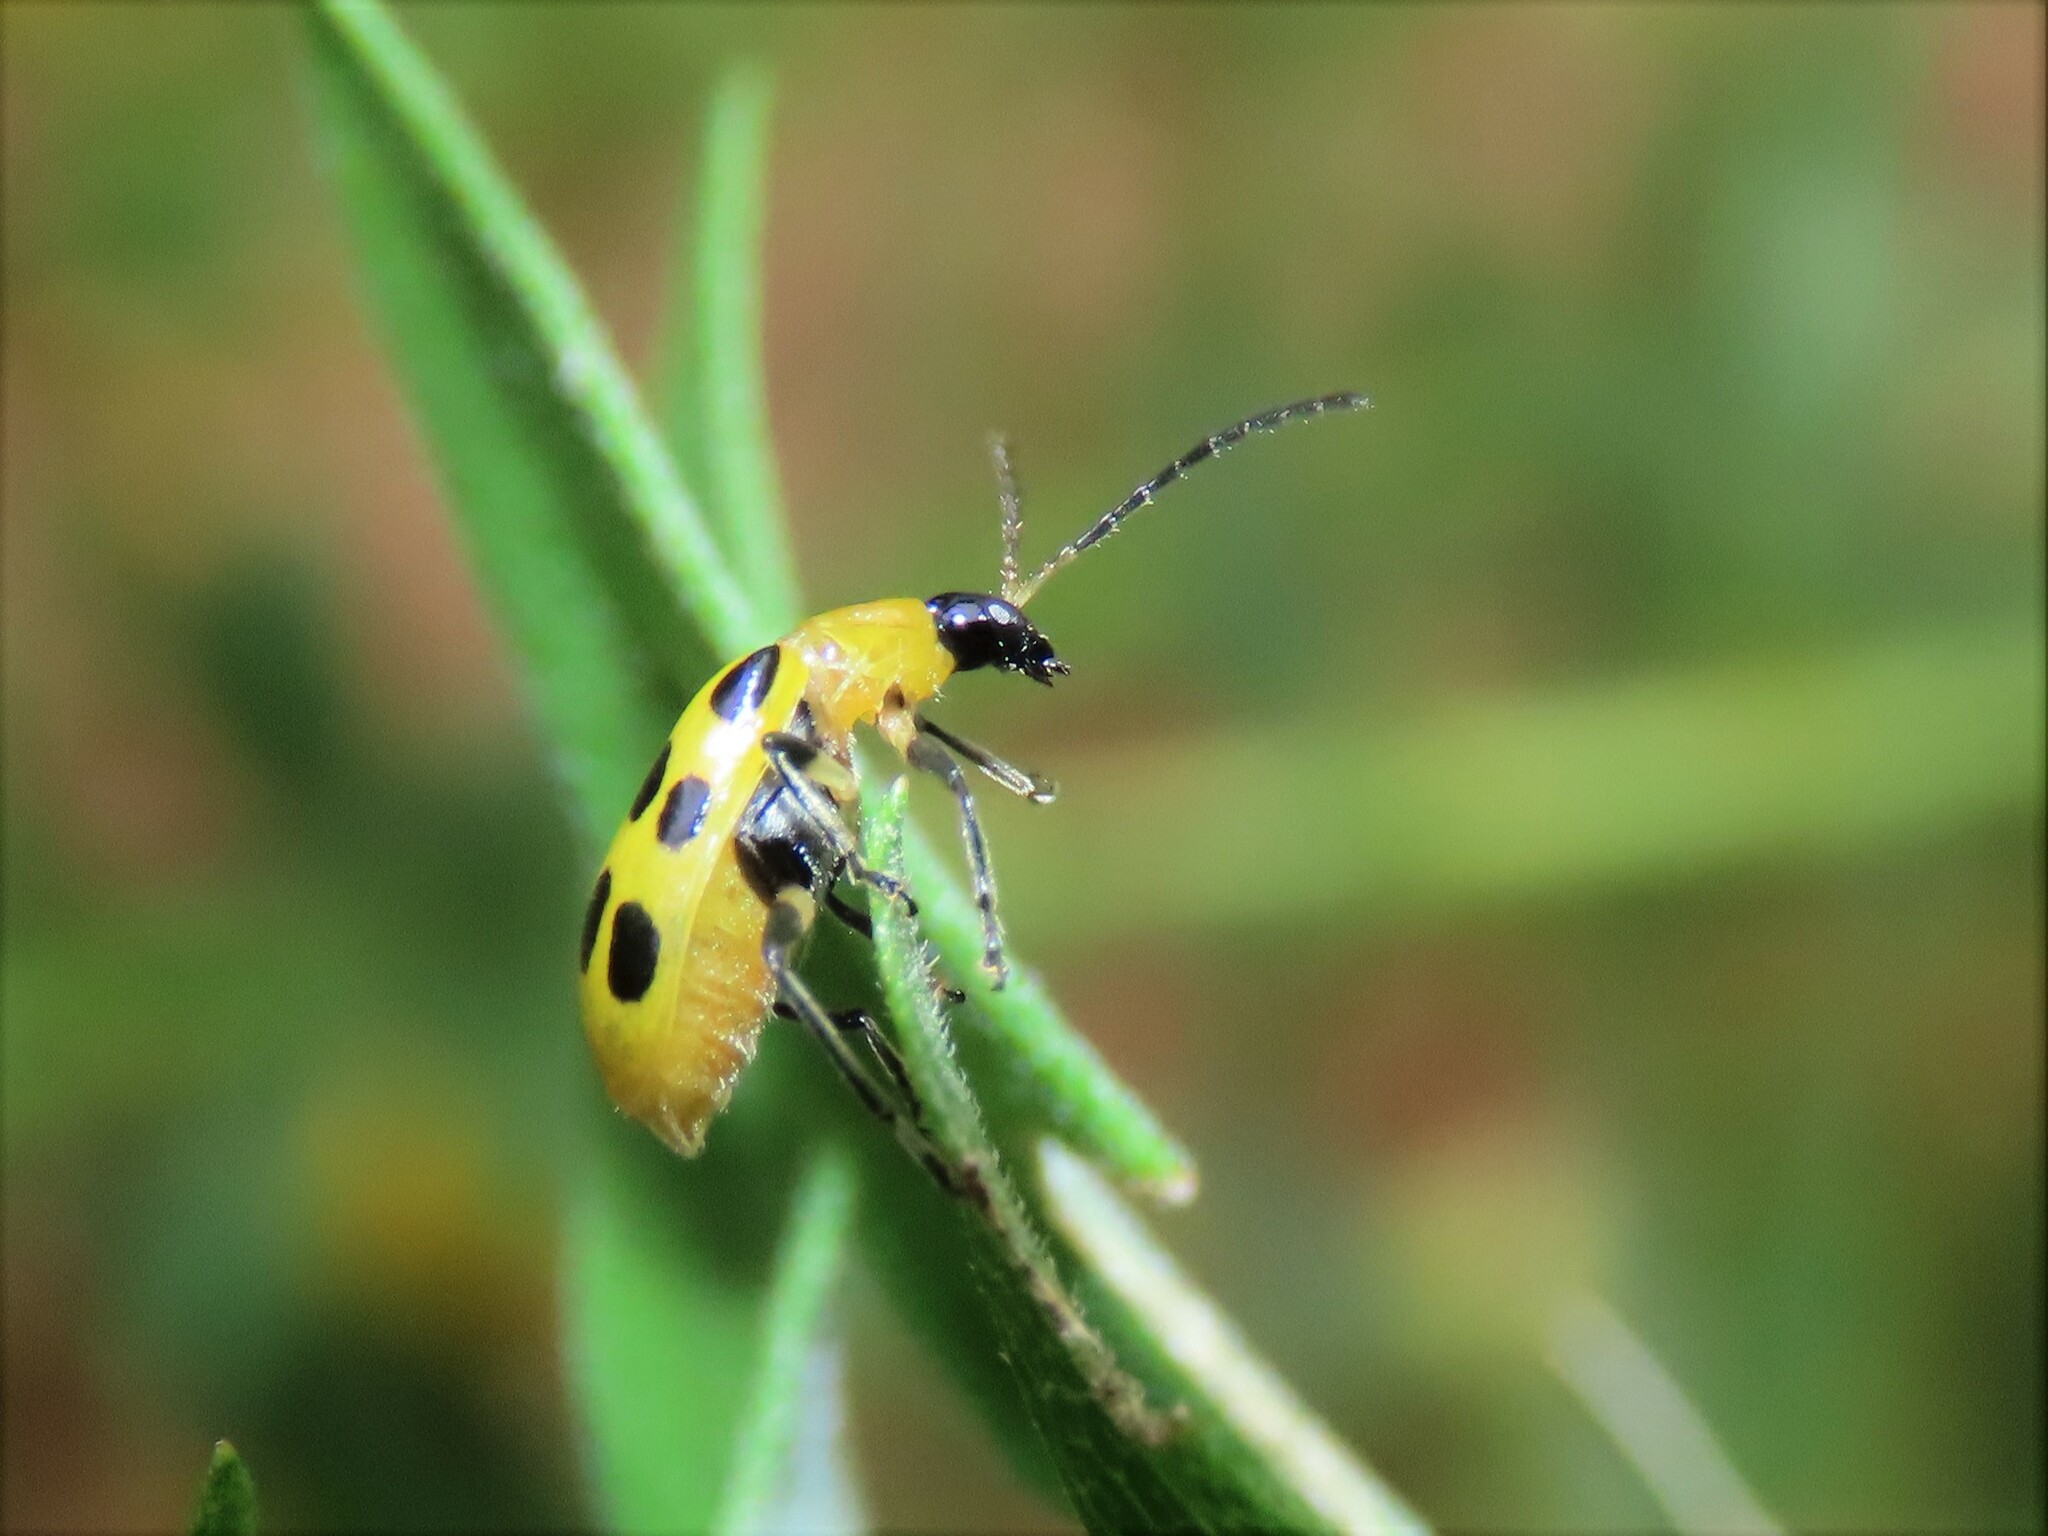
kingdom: Animalia
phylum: Arthropoda
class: Insecta
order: Coleoptera
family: Chrysomelidae
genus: Diabrotica
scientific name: Diabrotica undecimpunctata
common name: Spotted cucumber beetle
